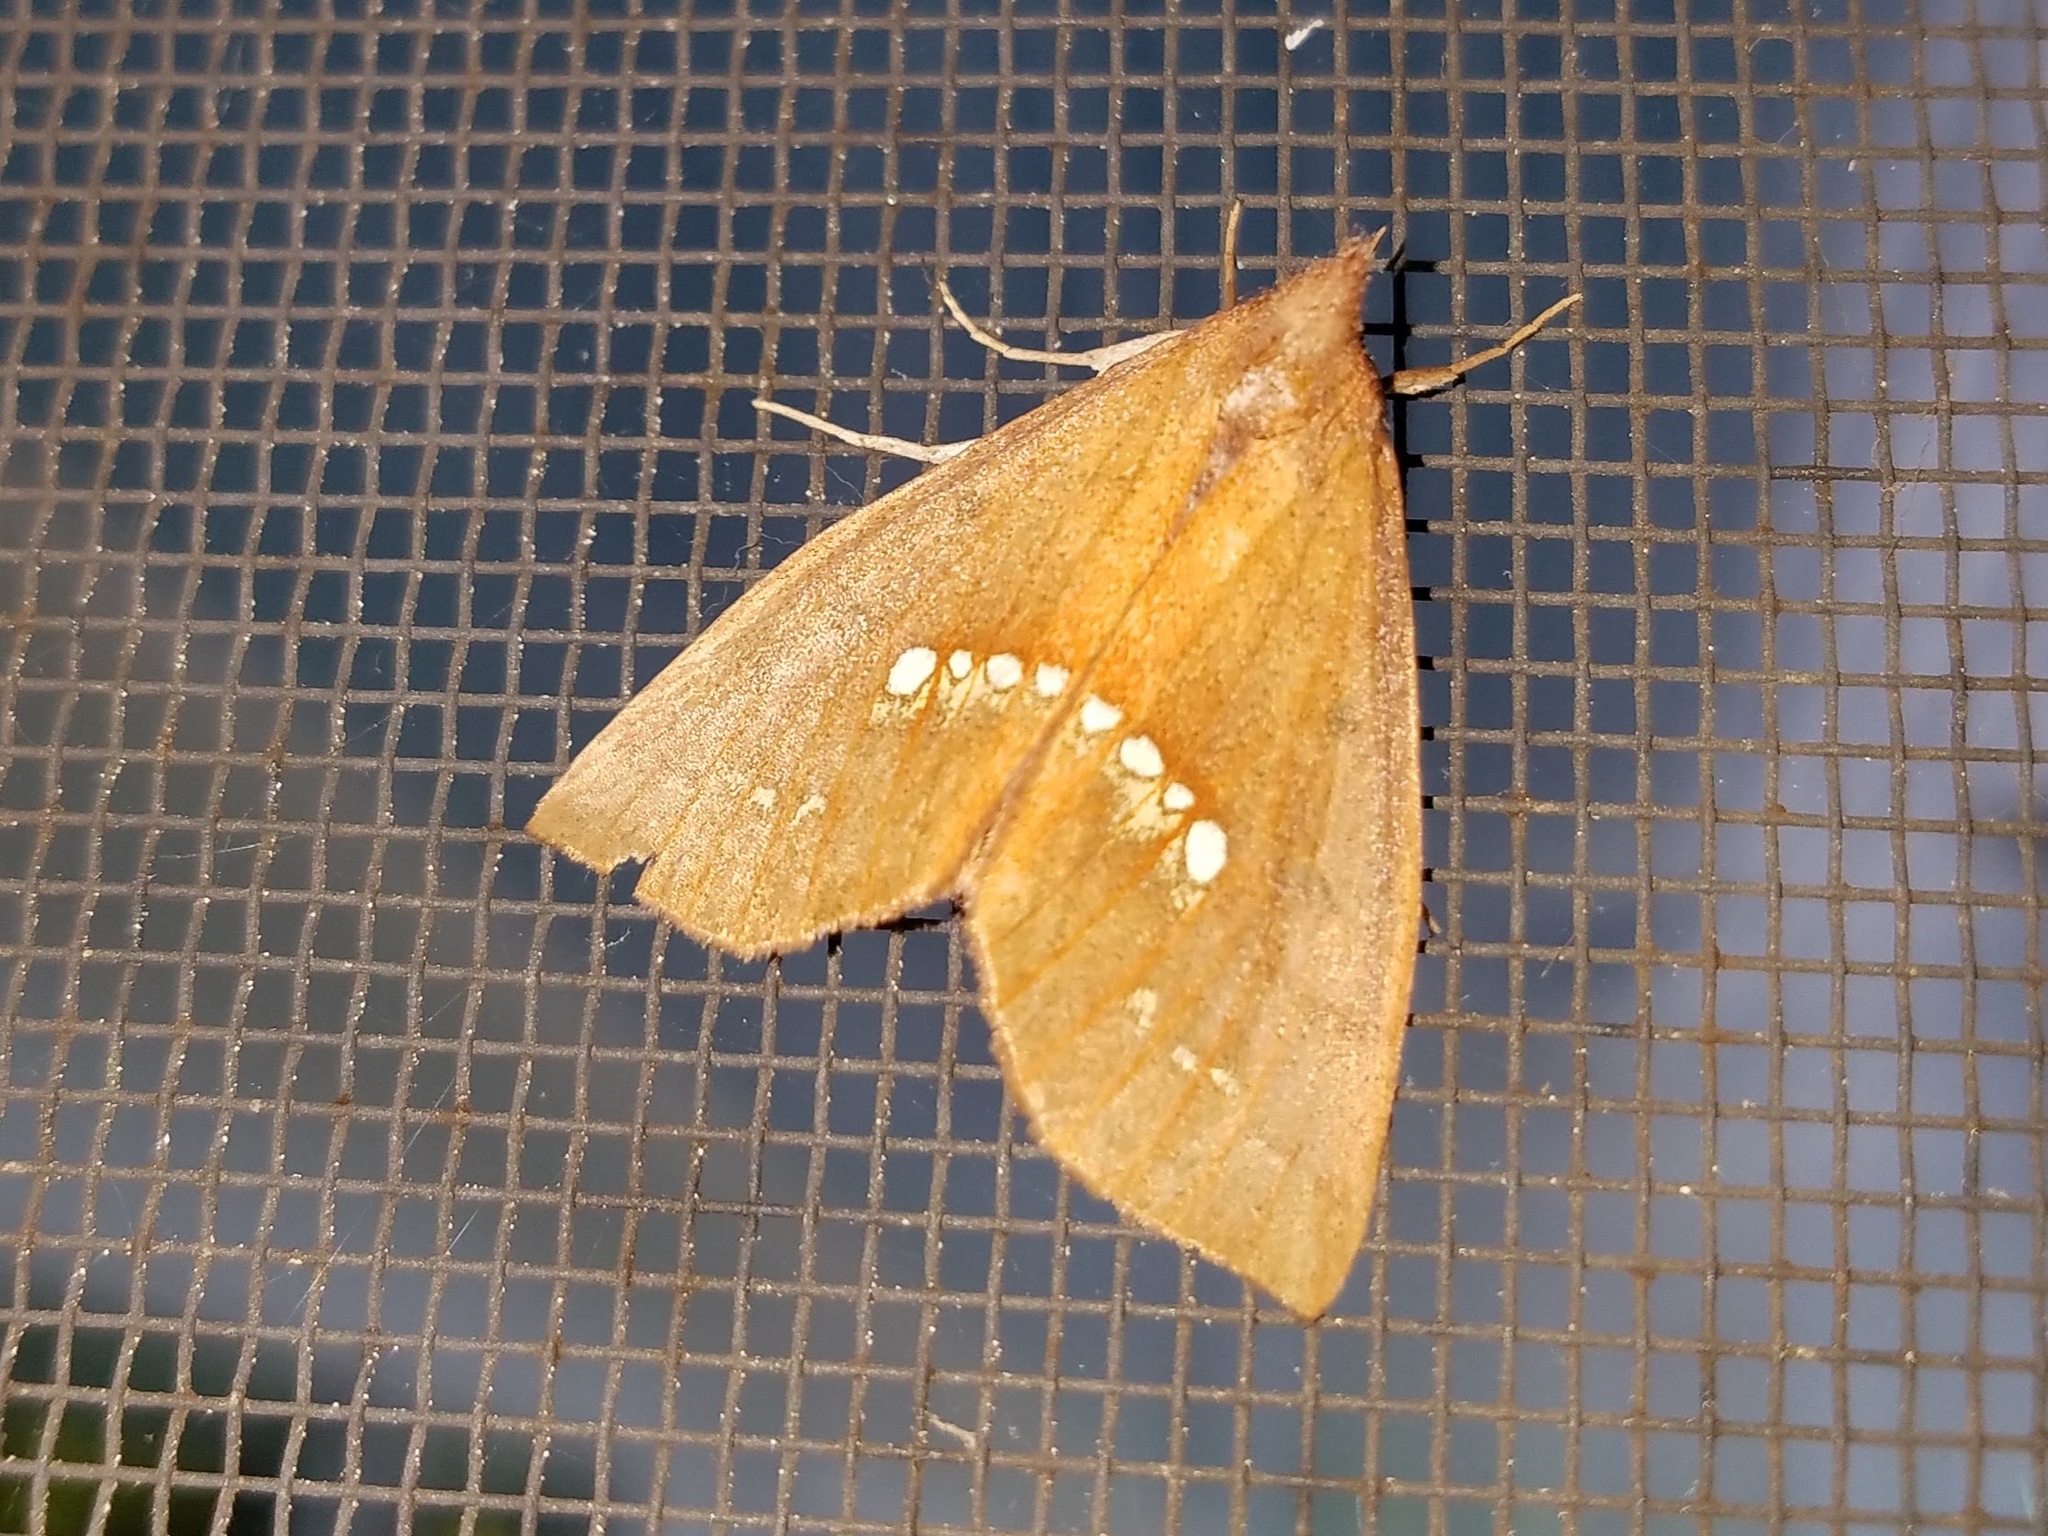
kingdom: Animalia
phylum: Arthropoda
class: Insecta
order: Lepidoptera
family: Erebidae
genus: Hypsoropha
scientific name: Hypsoropha monilis
